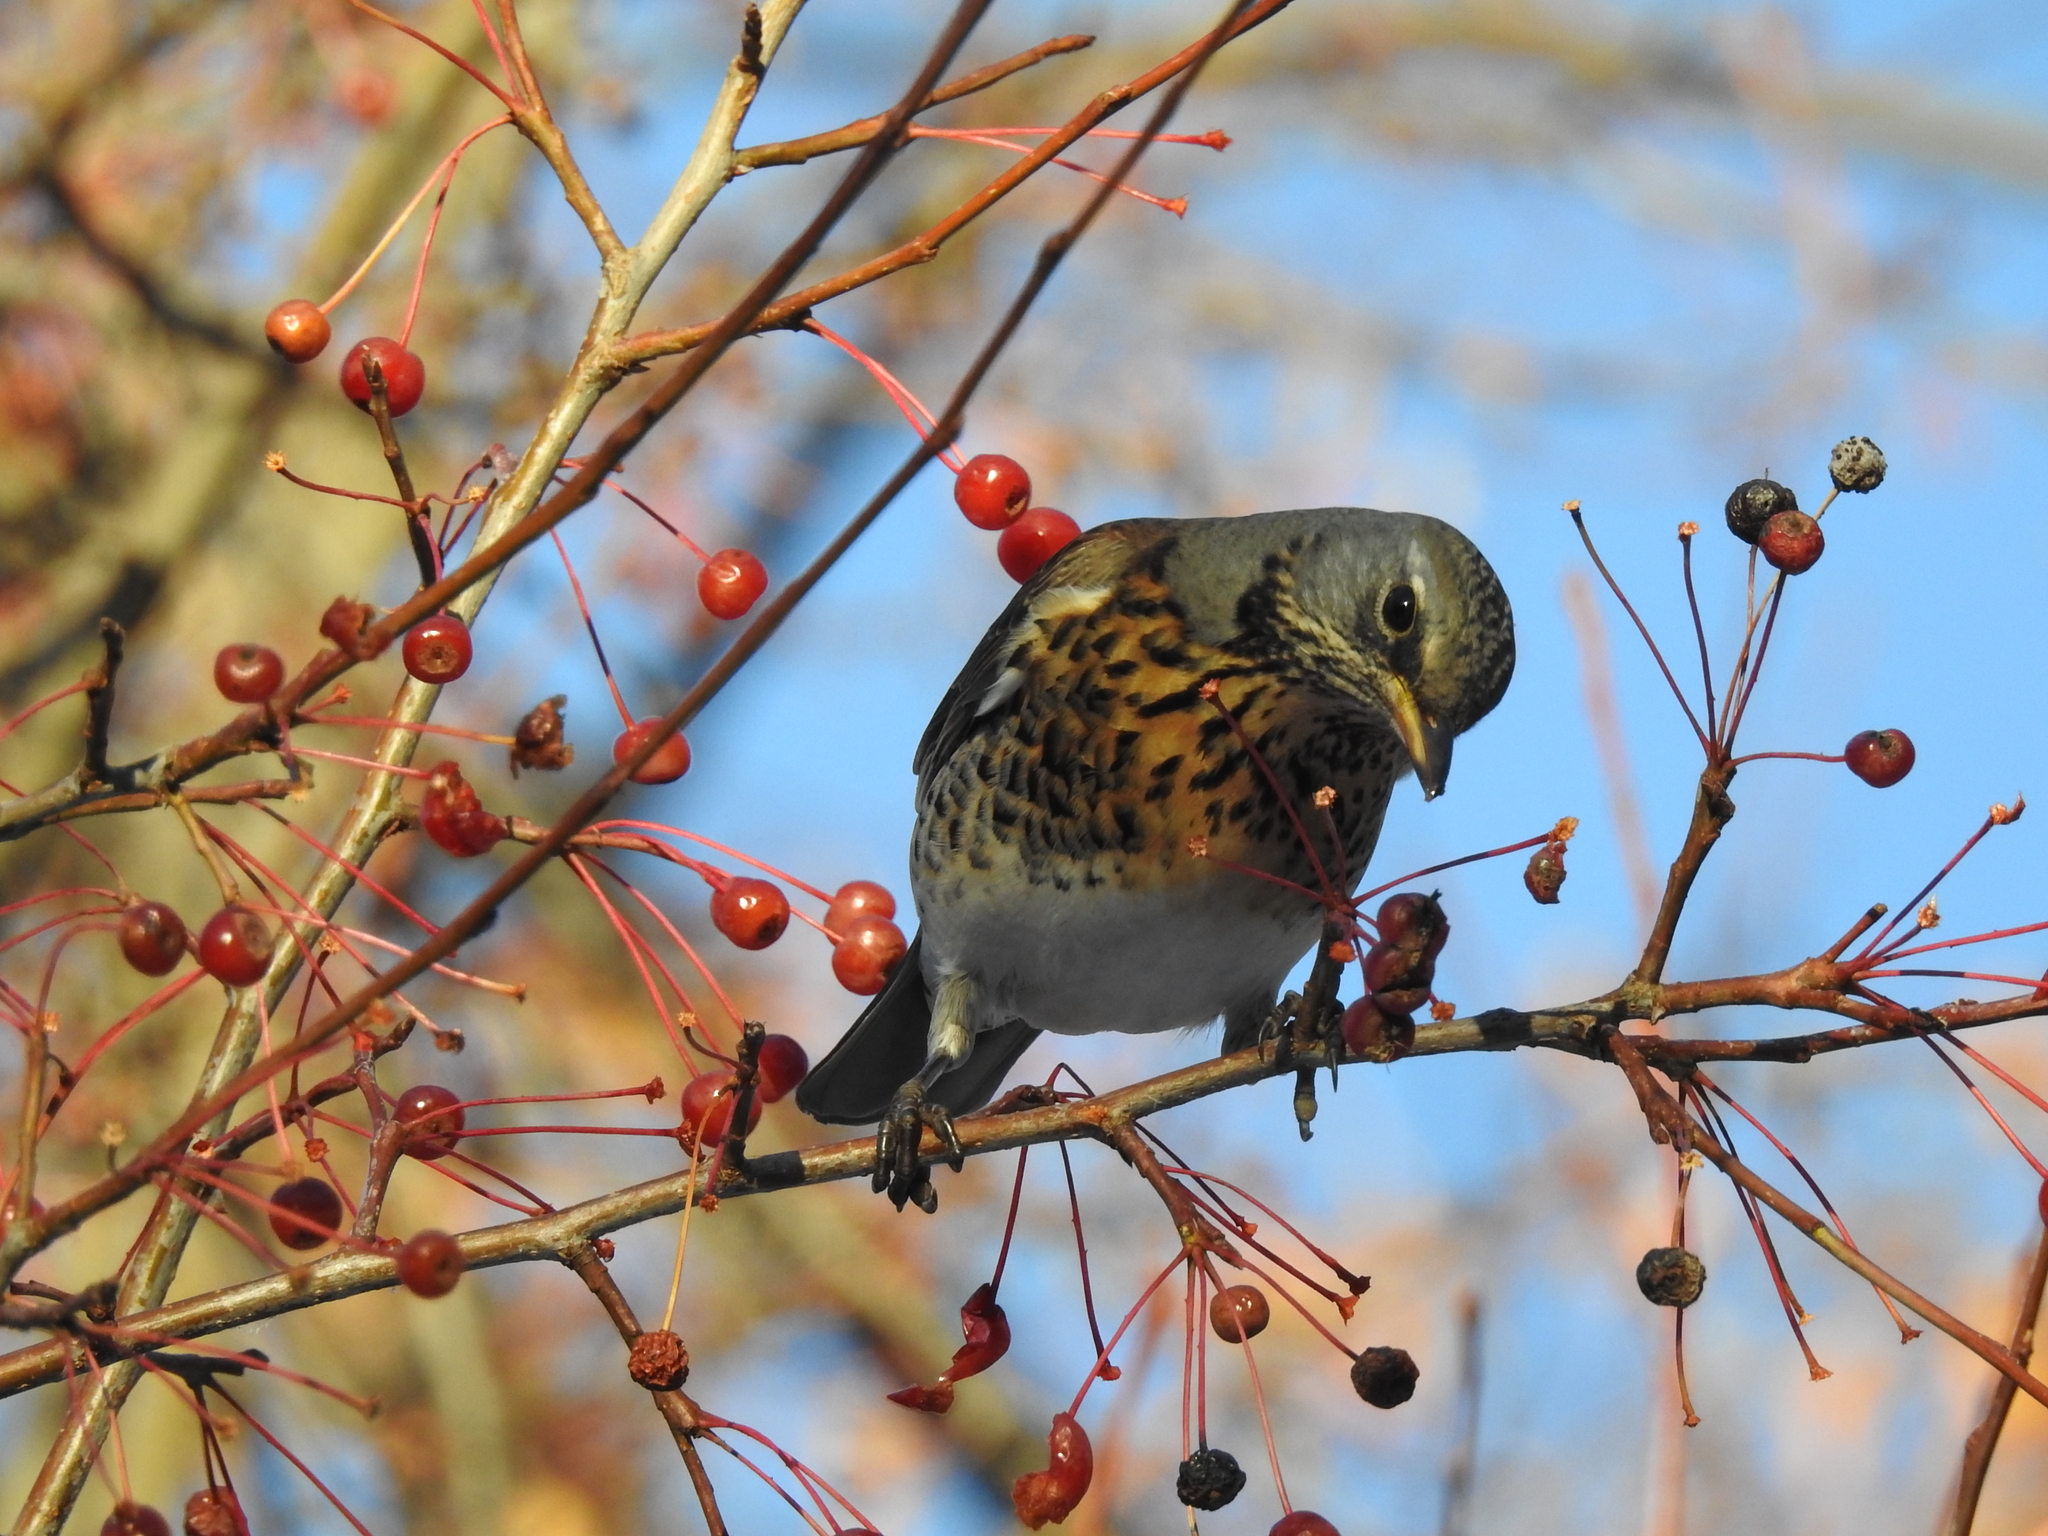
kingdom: Animalia
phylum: Chordata
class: Aves
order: Passeriformes
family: Turdidae
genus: Turdus
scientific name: Turdus pilaris
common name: Fieldfare
